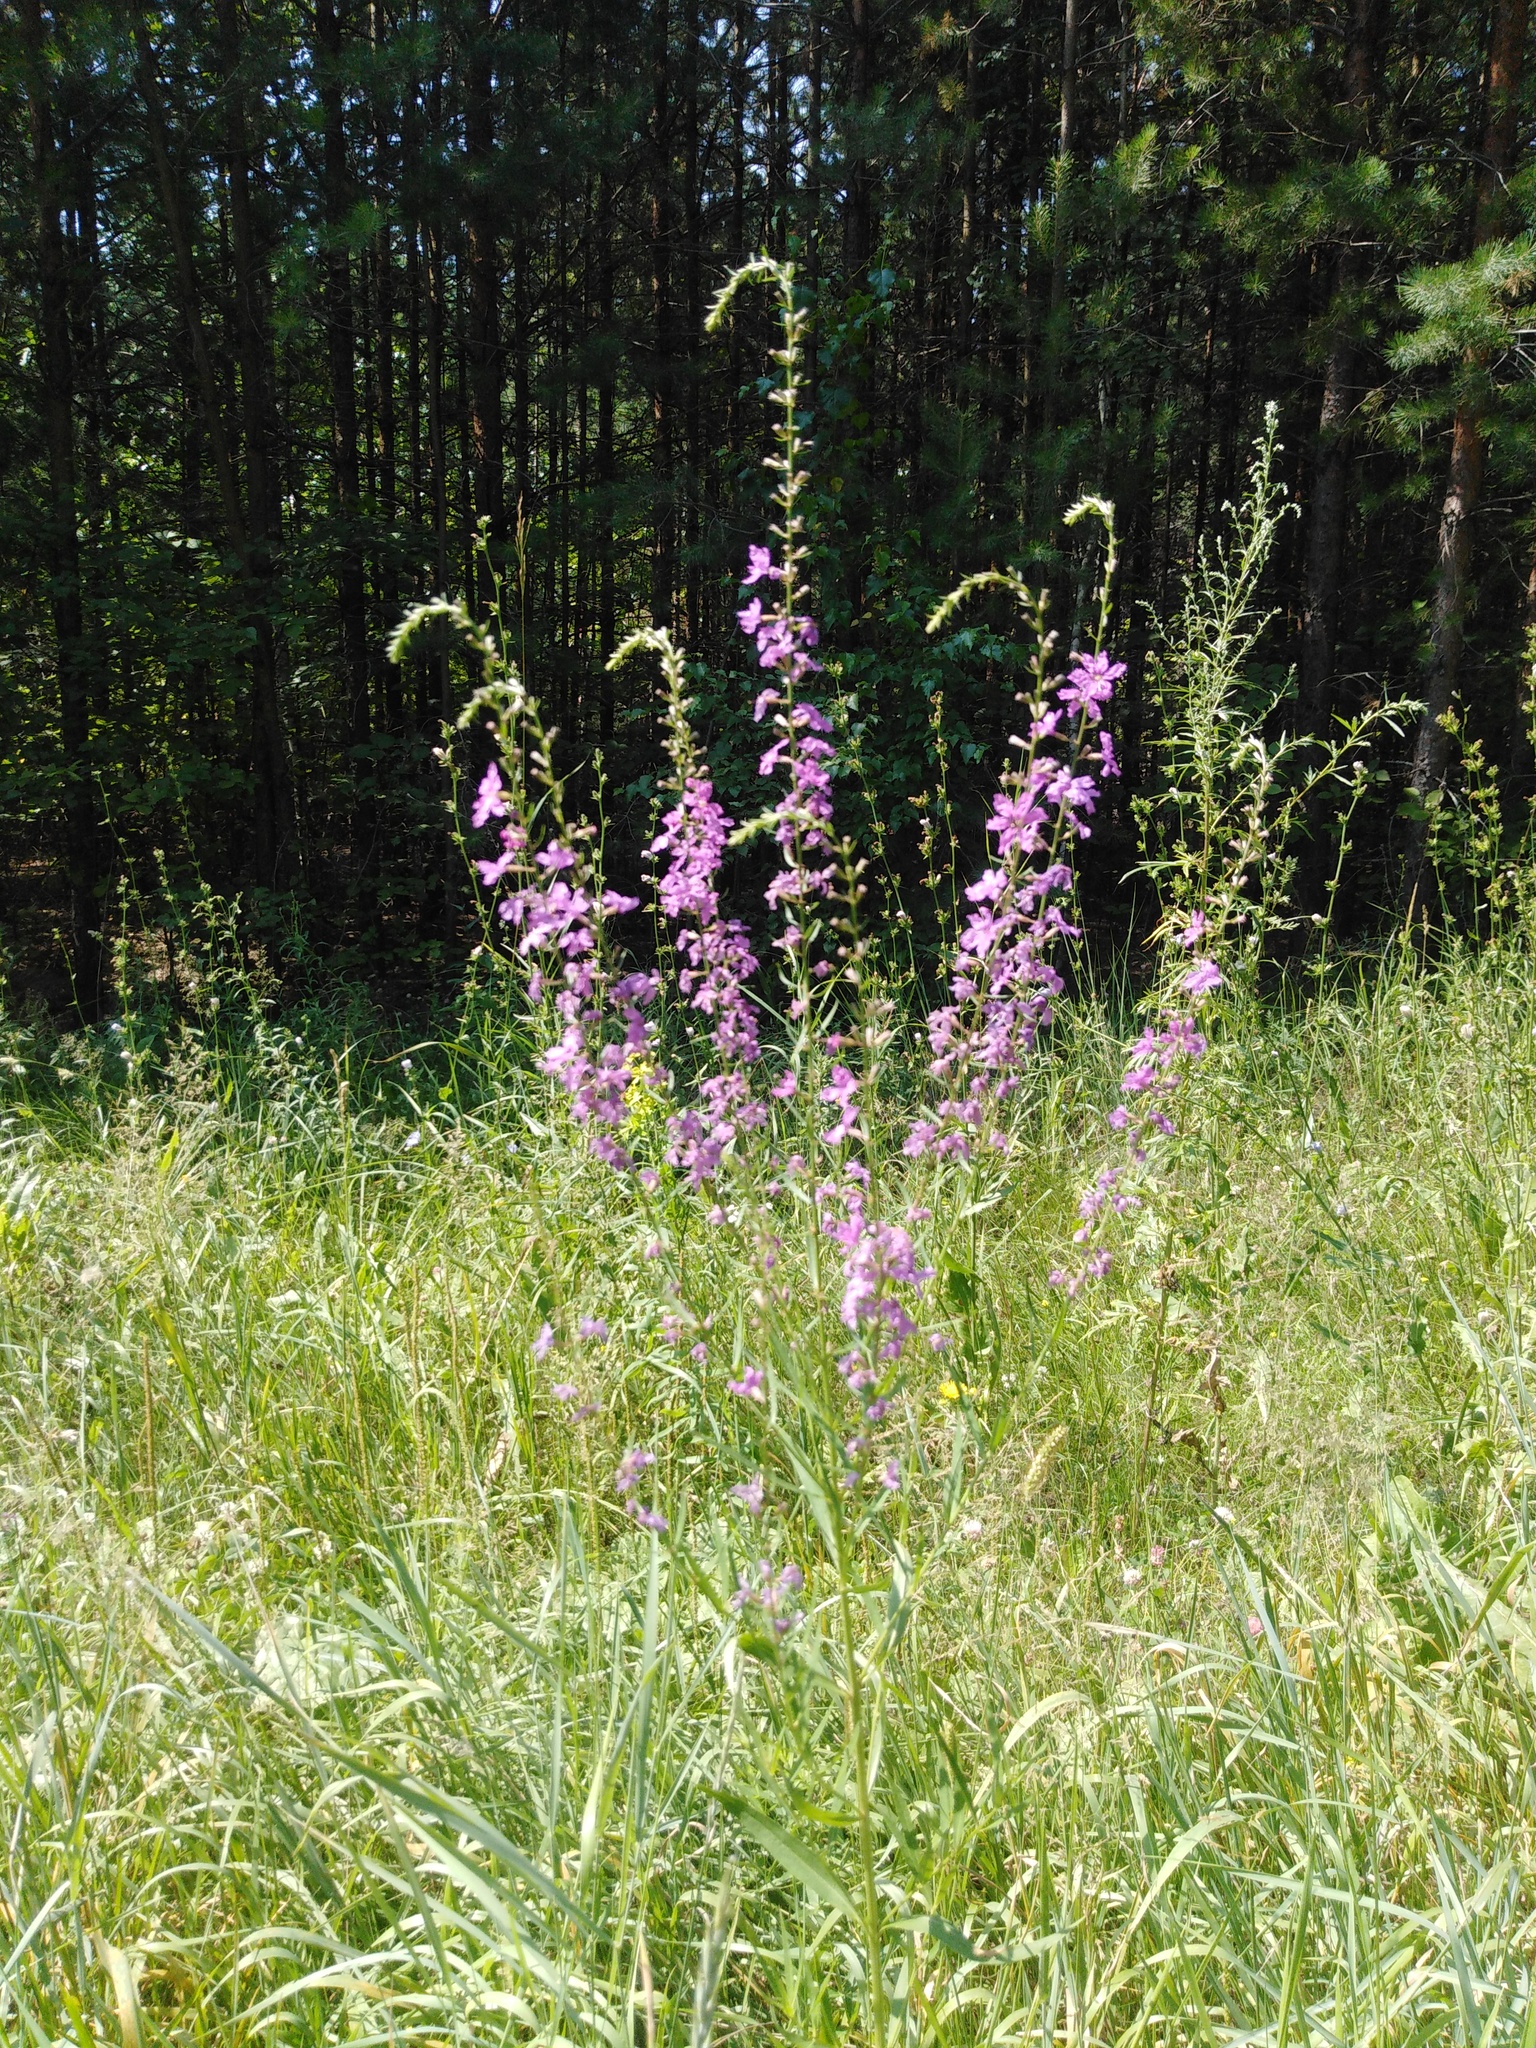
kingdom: Plantae
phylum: Tracheophyta
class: Magnoliopsida
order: Myrtales
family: Lythraceae
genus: Lythrum
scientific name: Lythrum virgatum
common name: European wand loosestrife
